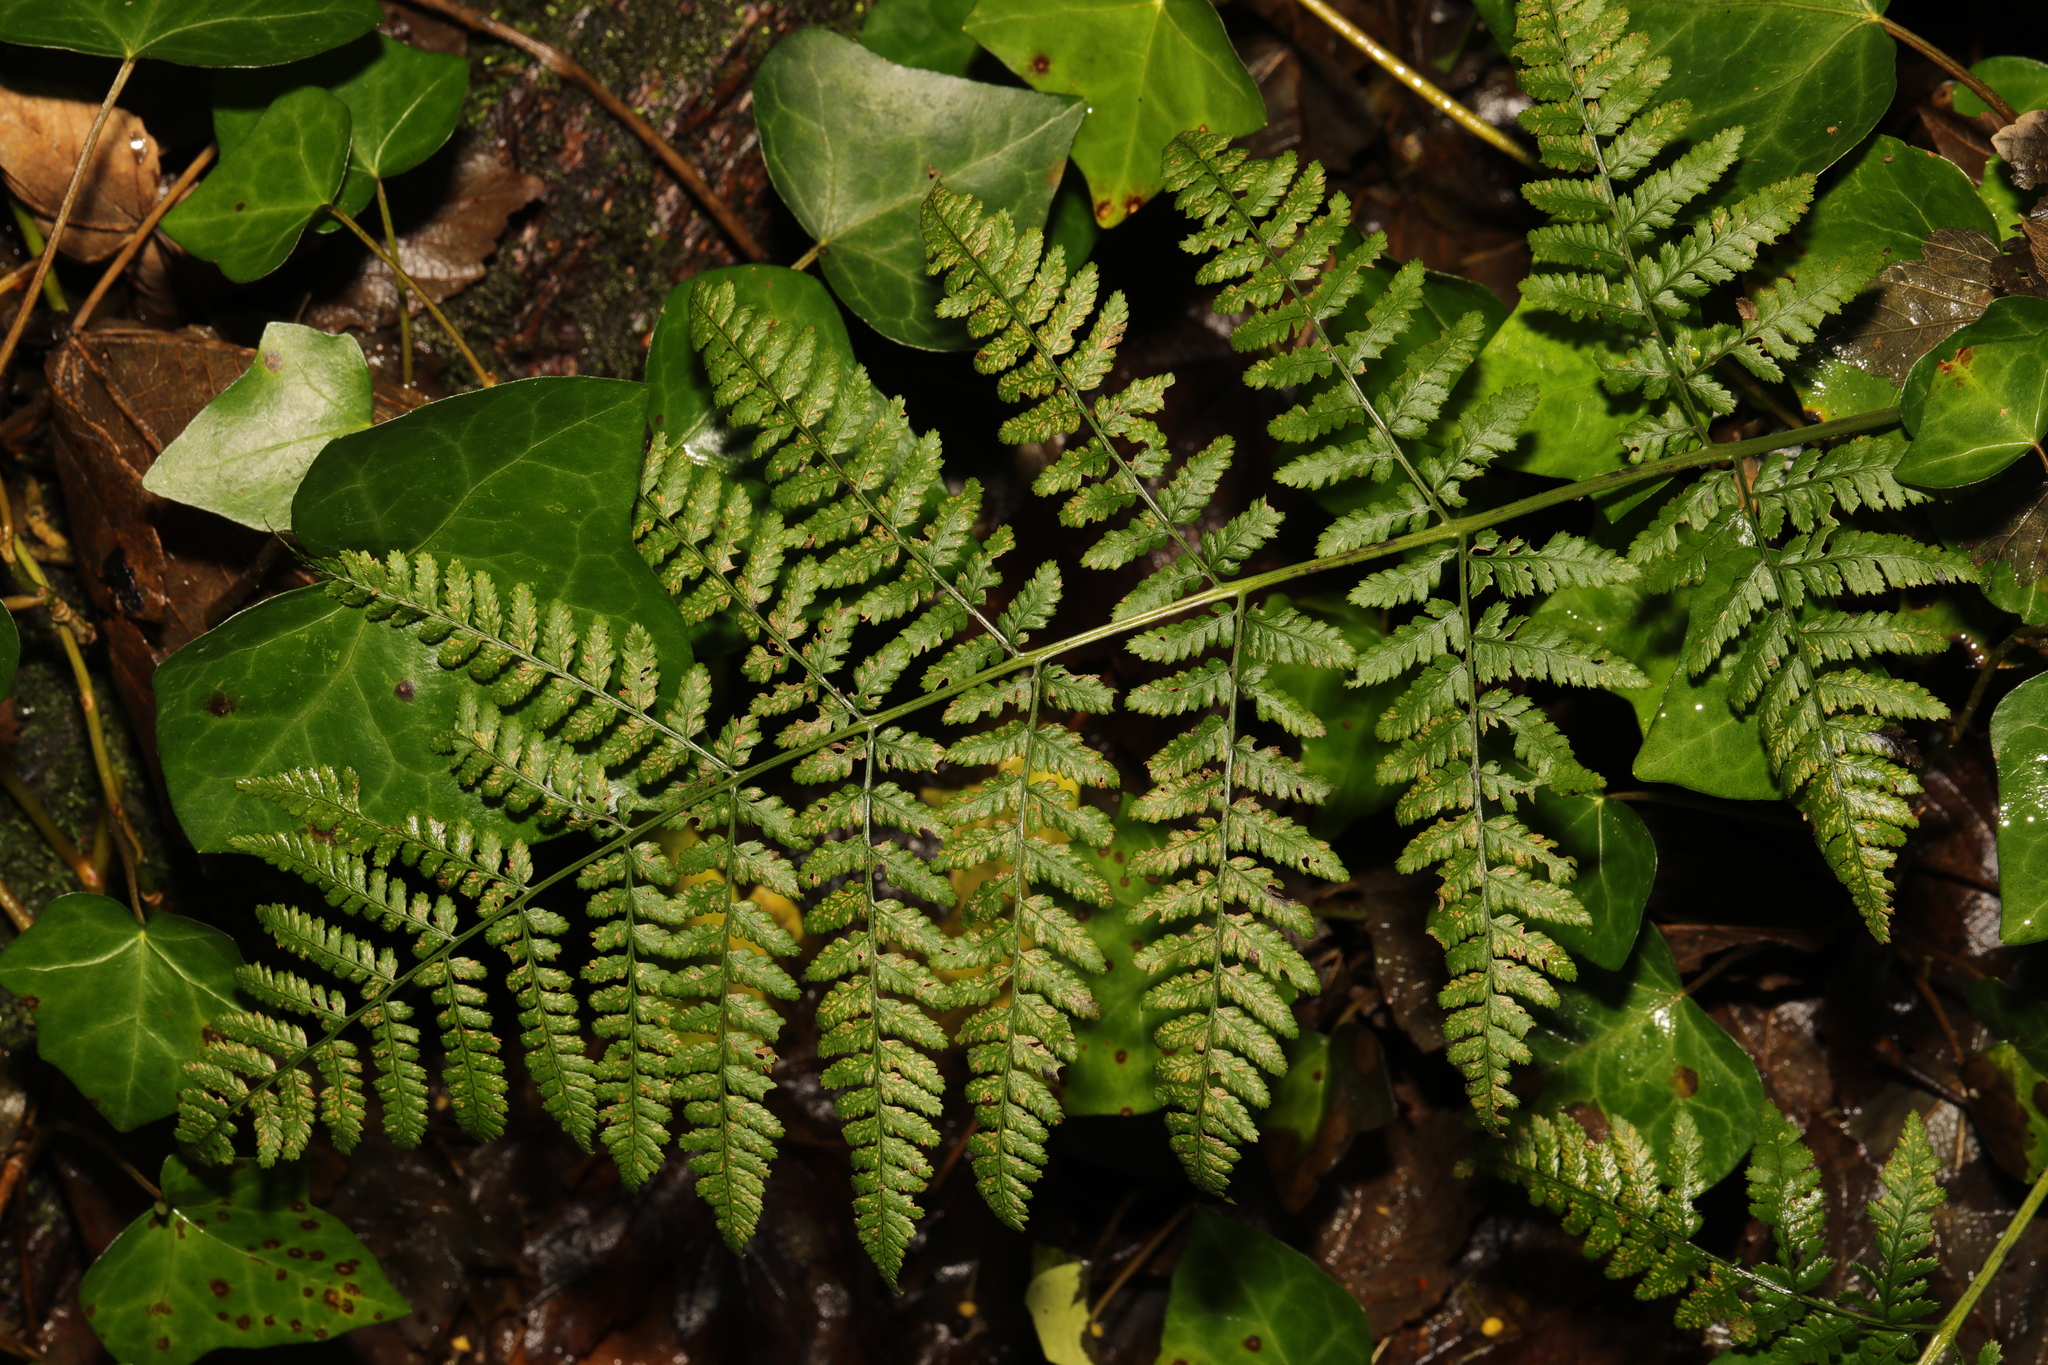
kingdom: Plantae
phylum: Tracheophyta
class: Polypodiopsida
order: Polypodiales
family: Dryopteridaceae
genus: Dryopteris
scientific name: Dryopteris dilatata
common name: Broad buckler-fern
